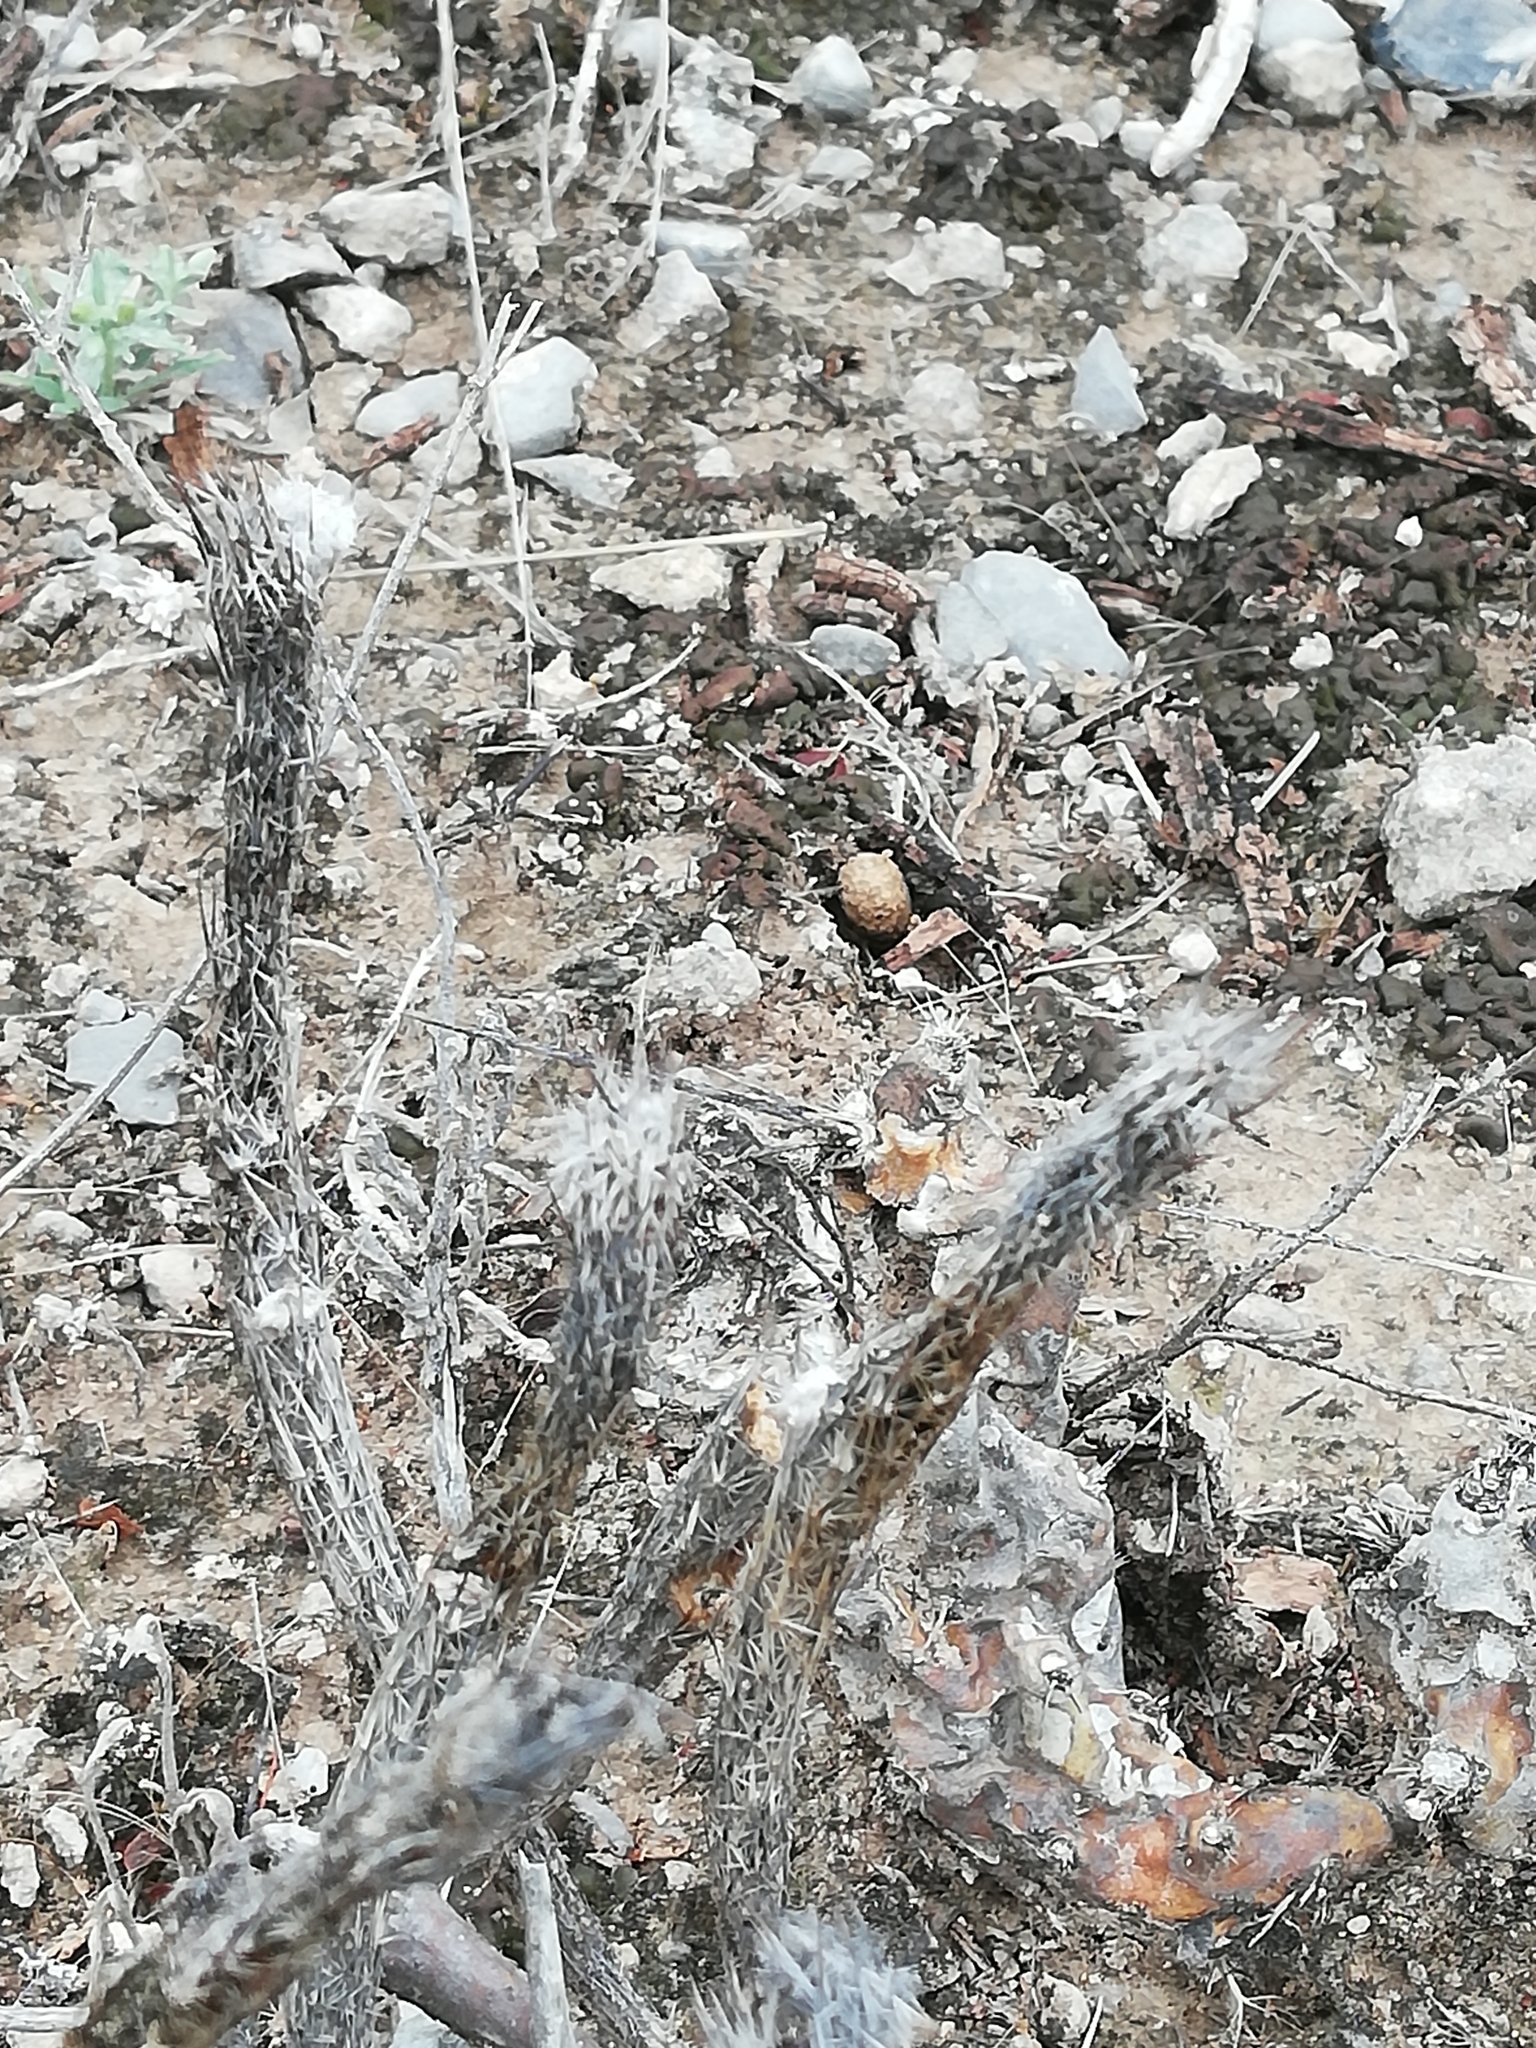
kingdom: Plantae
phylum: Tracheophyta
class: Magnoliopsida
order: Caryophyllales
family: Cactaceae
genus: Echinocereus
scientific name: Echinocereus poselgeri
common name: Dahlia apple cactus
